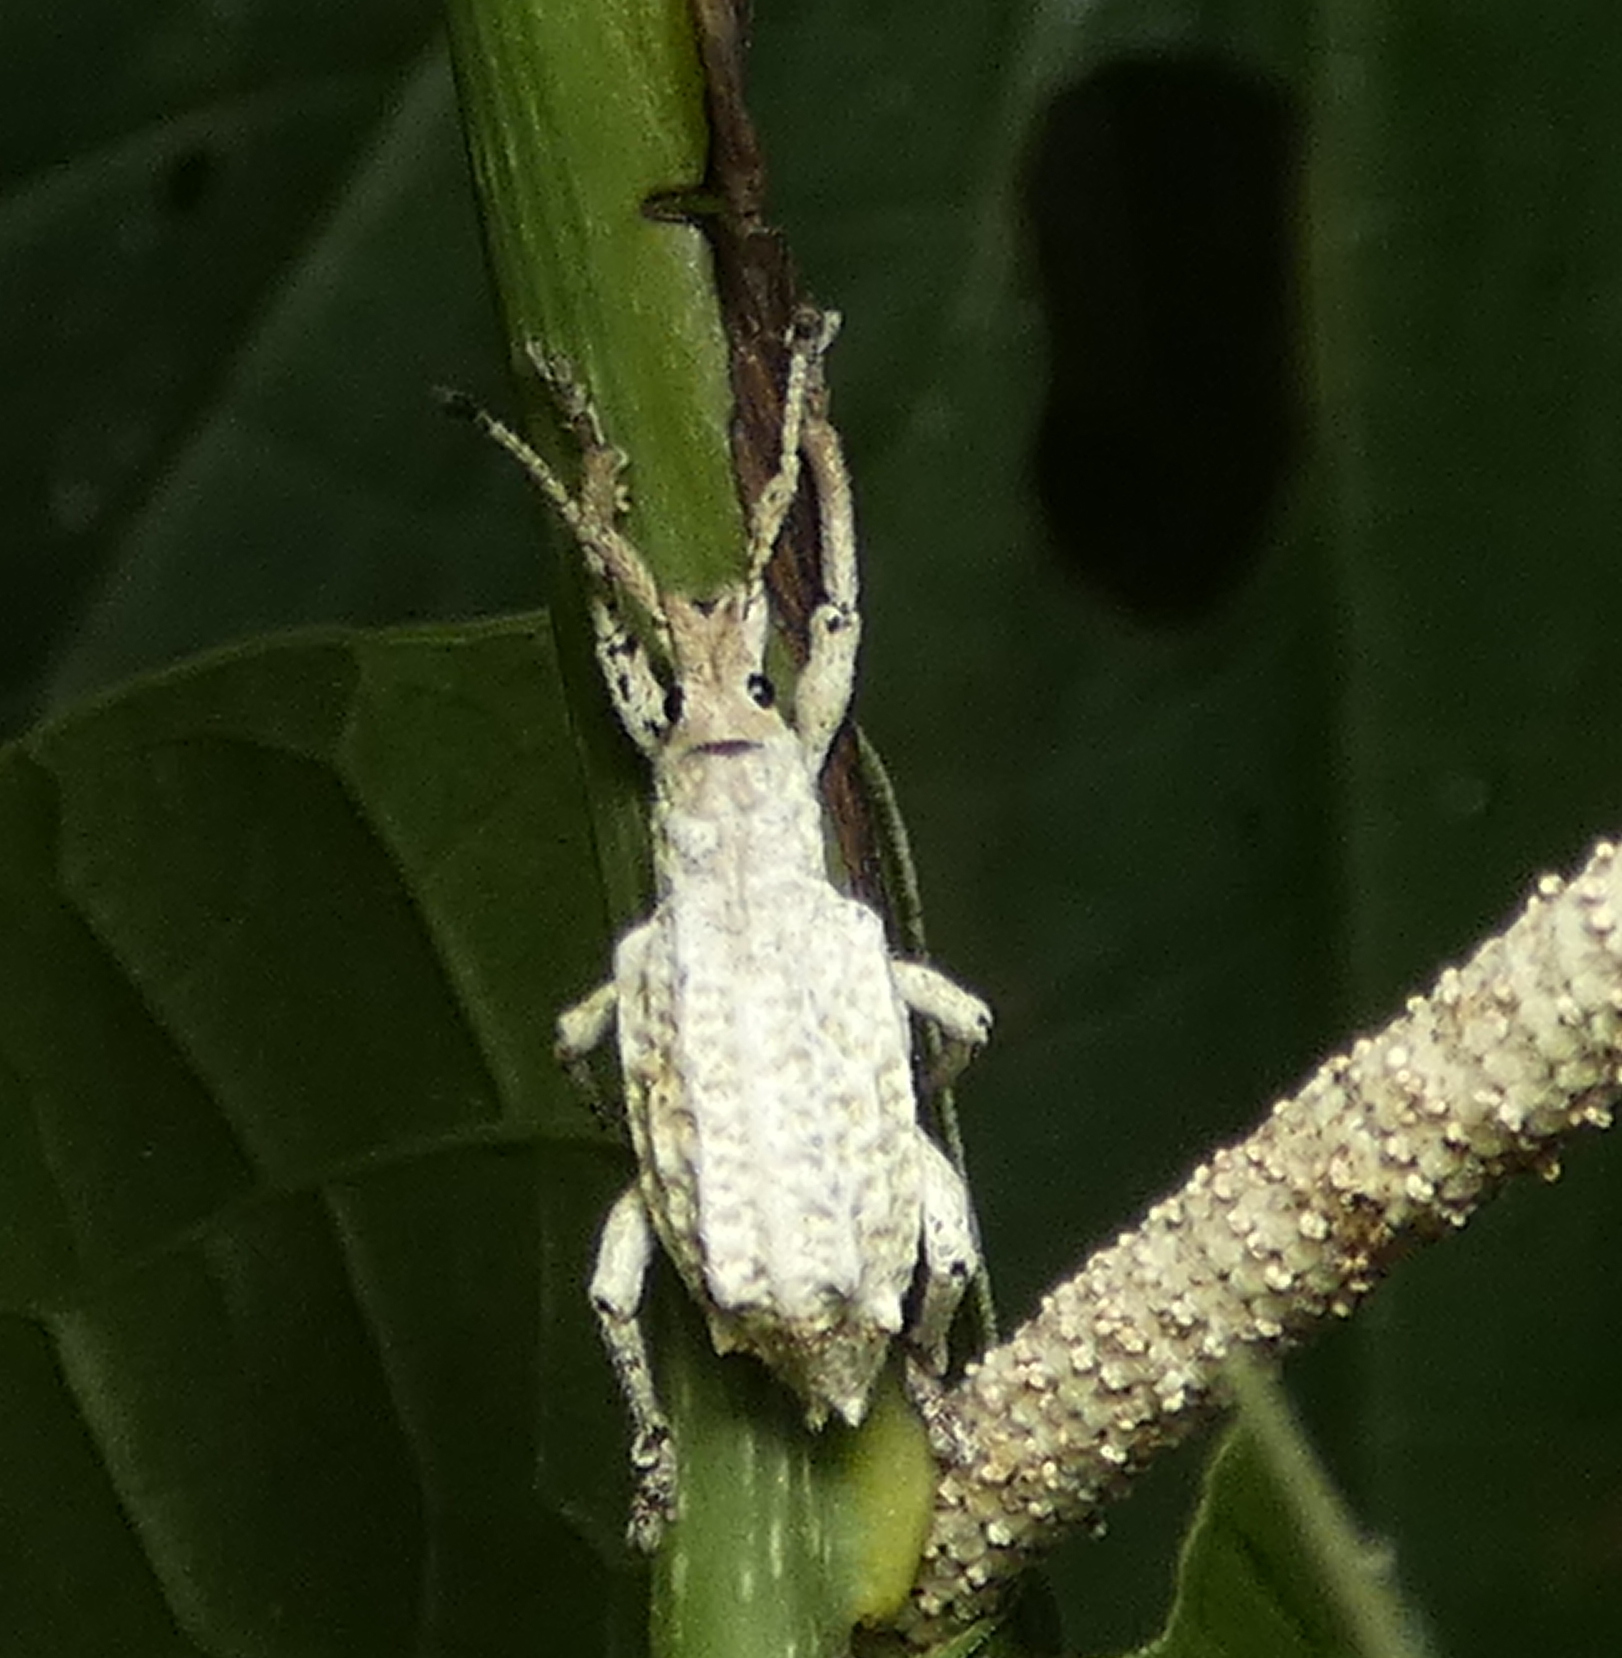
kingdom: Animalia
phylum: Arthropoda
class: Insecta
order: Coleoptera
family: Curculionidae
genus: Compsus
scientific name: Compsus niveus
